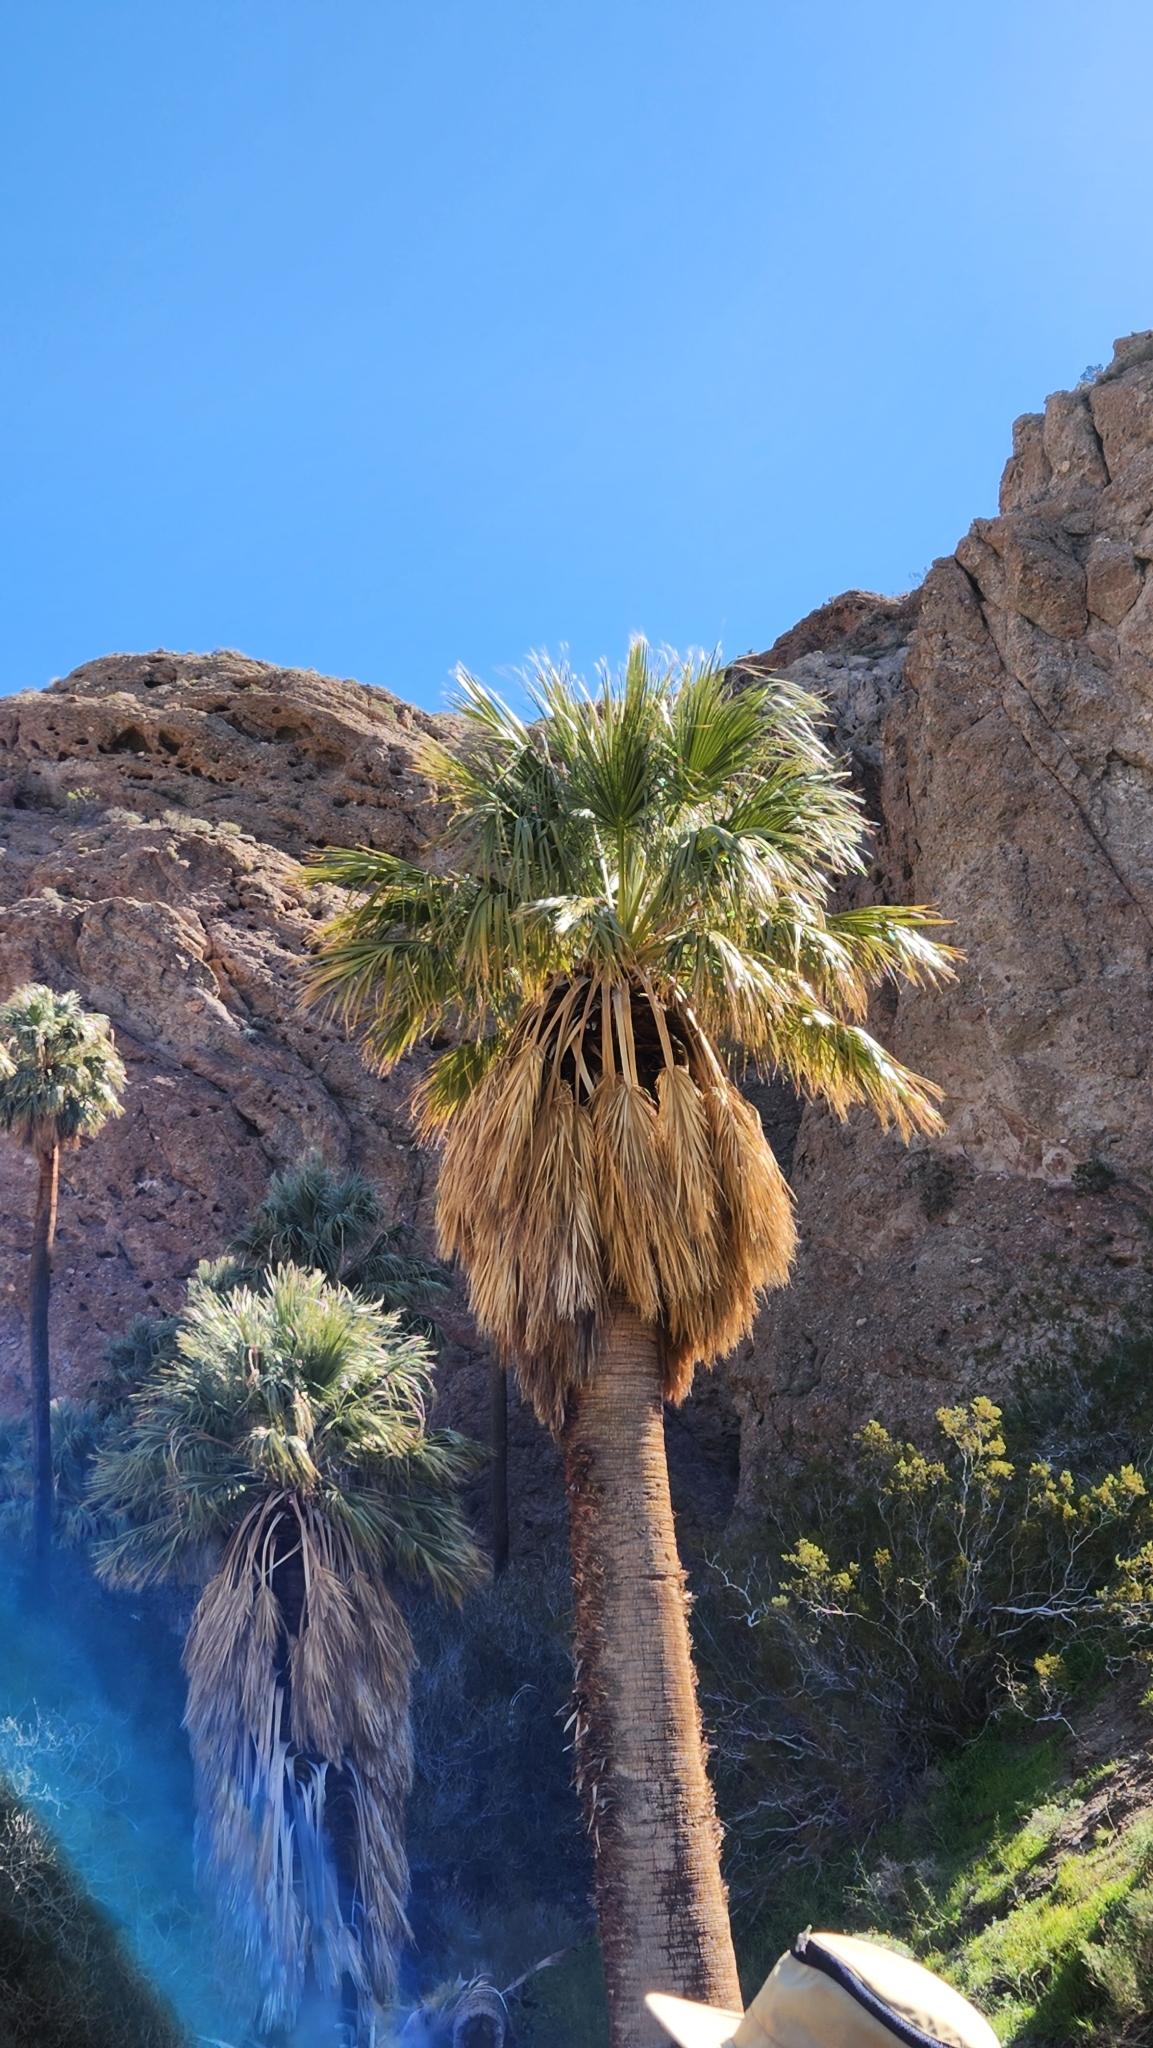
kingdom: Plantae
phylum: Tracheophyta
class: Liliopsida
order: Arecales
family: Arecaceae
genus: Washingtonia
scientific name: Washingtonia filifera
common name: California fan palm
